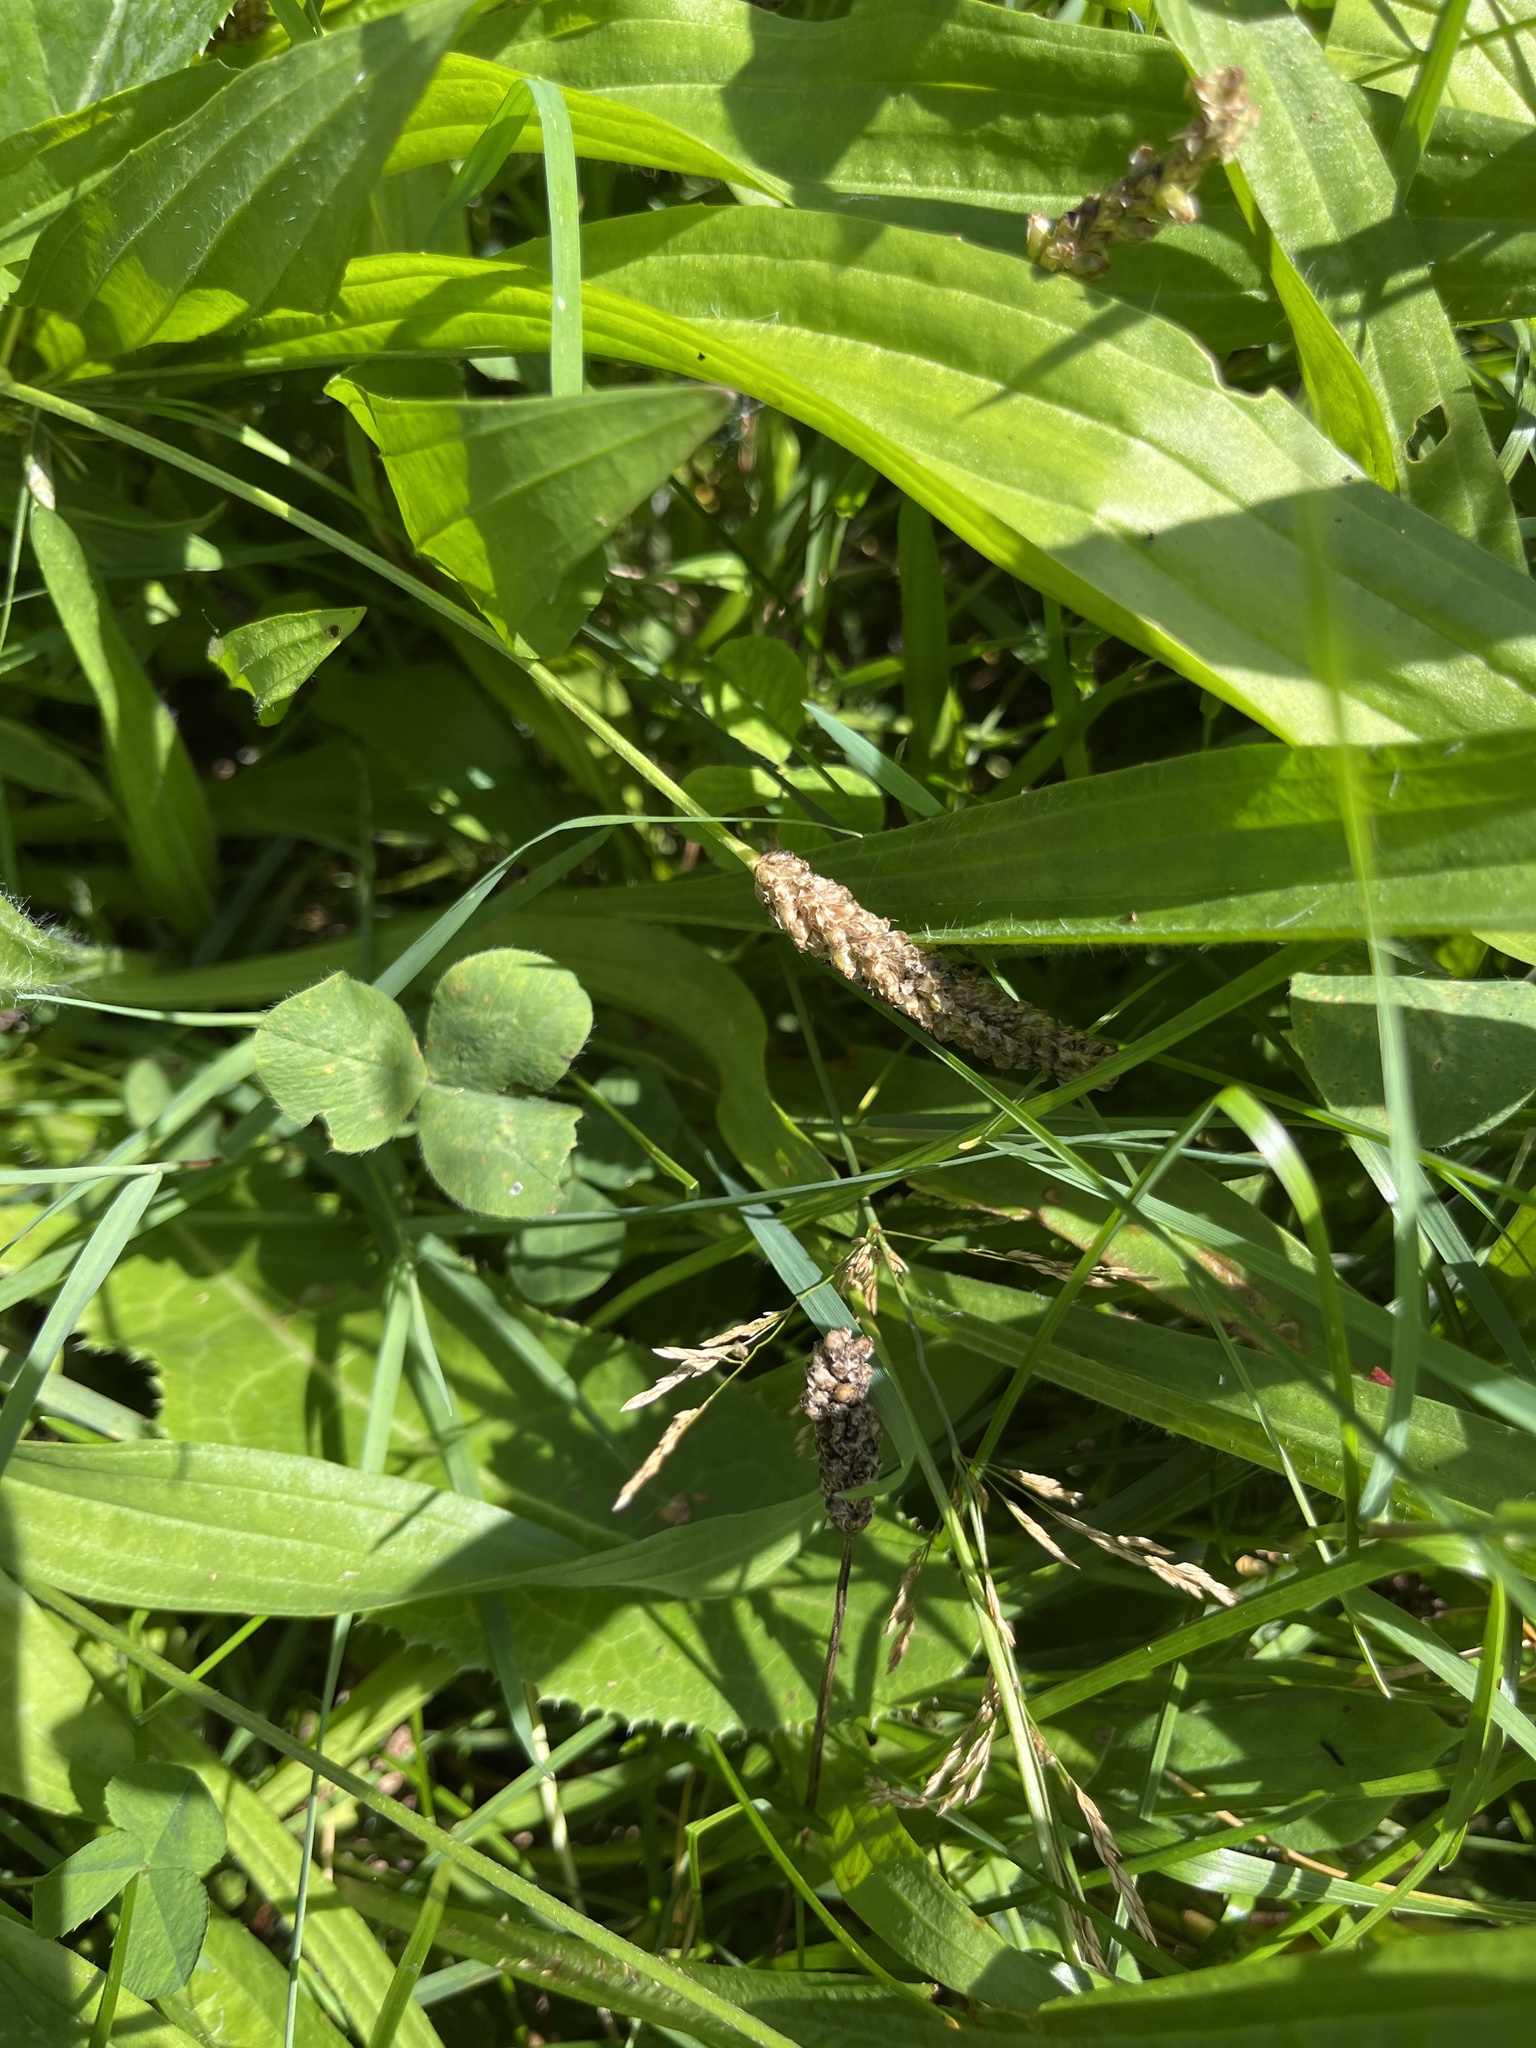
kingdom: Plantae
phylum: Tracheophyta
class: Magnoliopsida
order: Lamiales
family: Plantaginaceae
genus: Plantago
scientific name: Plantago lanceolata
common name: Ribwort plantain
